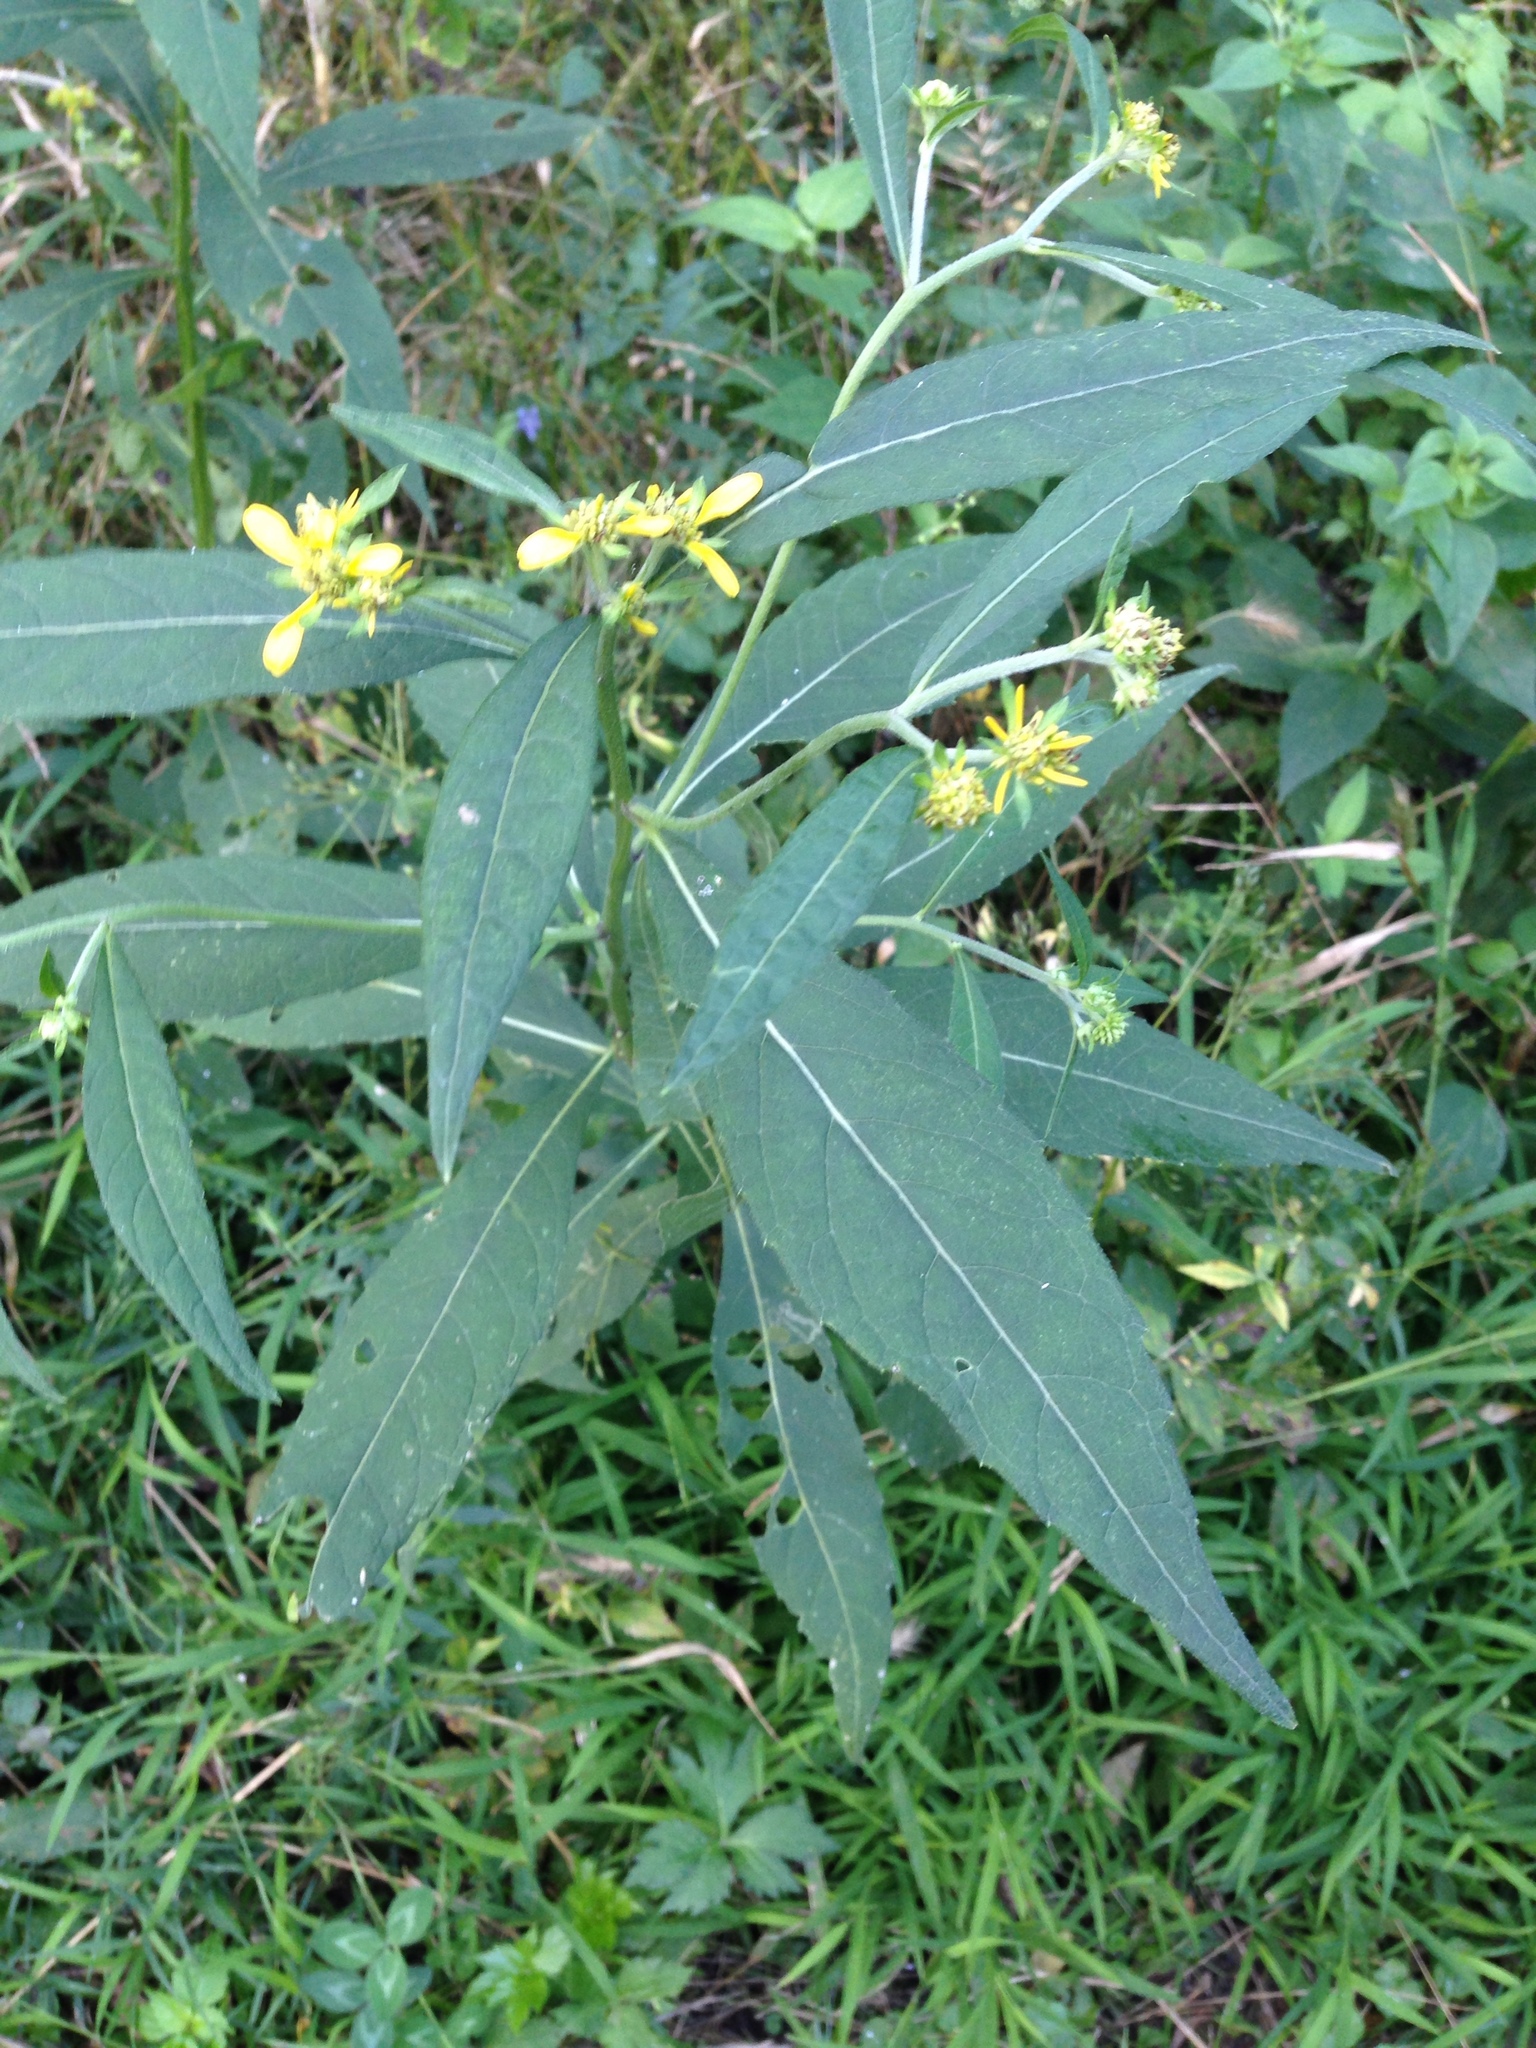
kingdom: Plantae
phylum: Tracheophyta
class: Magnoliopsida
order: Asterales
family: Asteraceae
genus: Verbesina
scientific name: Verbesina alternifolia
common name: Wingstem
